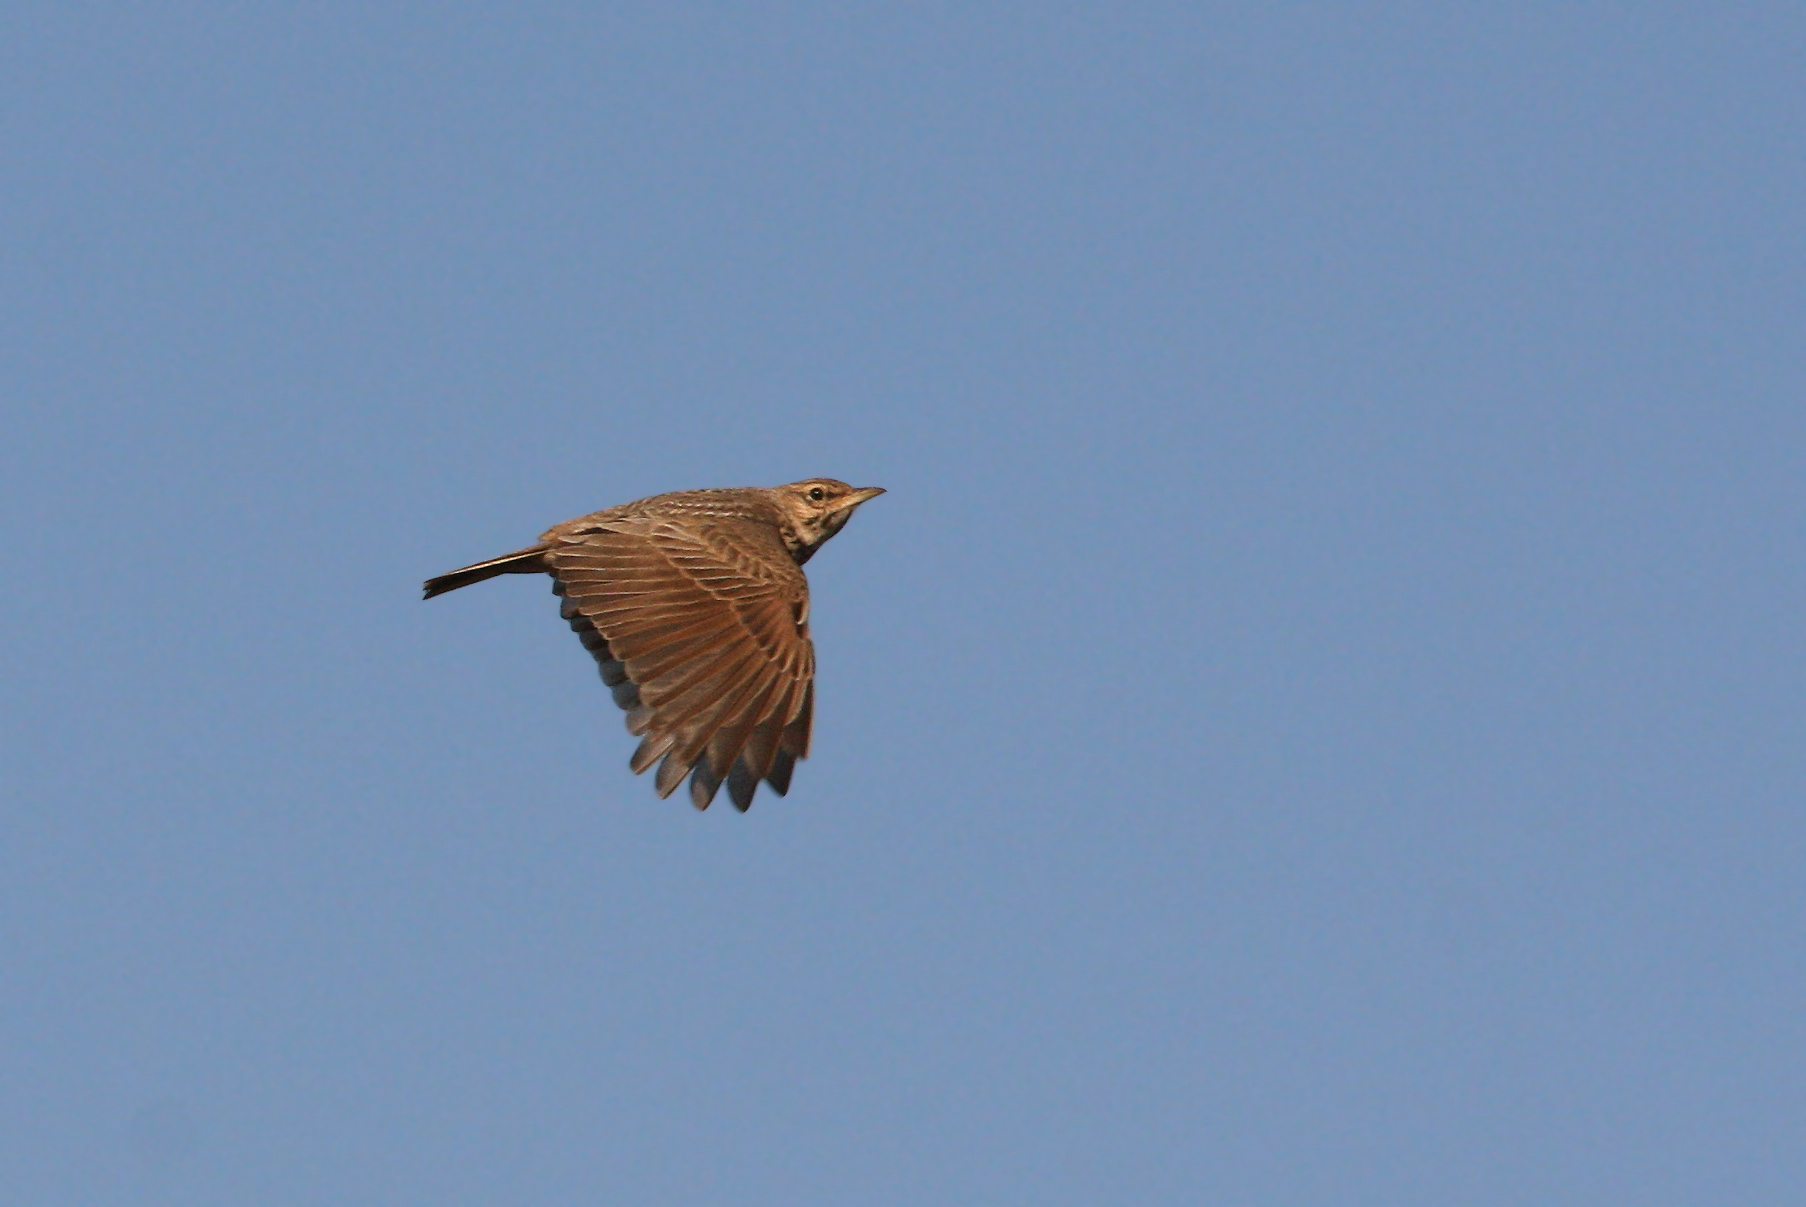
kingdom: Animalia
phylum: Chordata
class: Aves
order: Passeriformes
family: Alaudidae
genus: Galerida
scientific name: Galerida theklae
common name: Thekla lark
